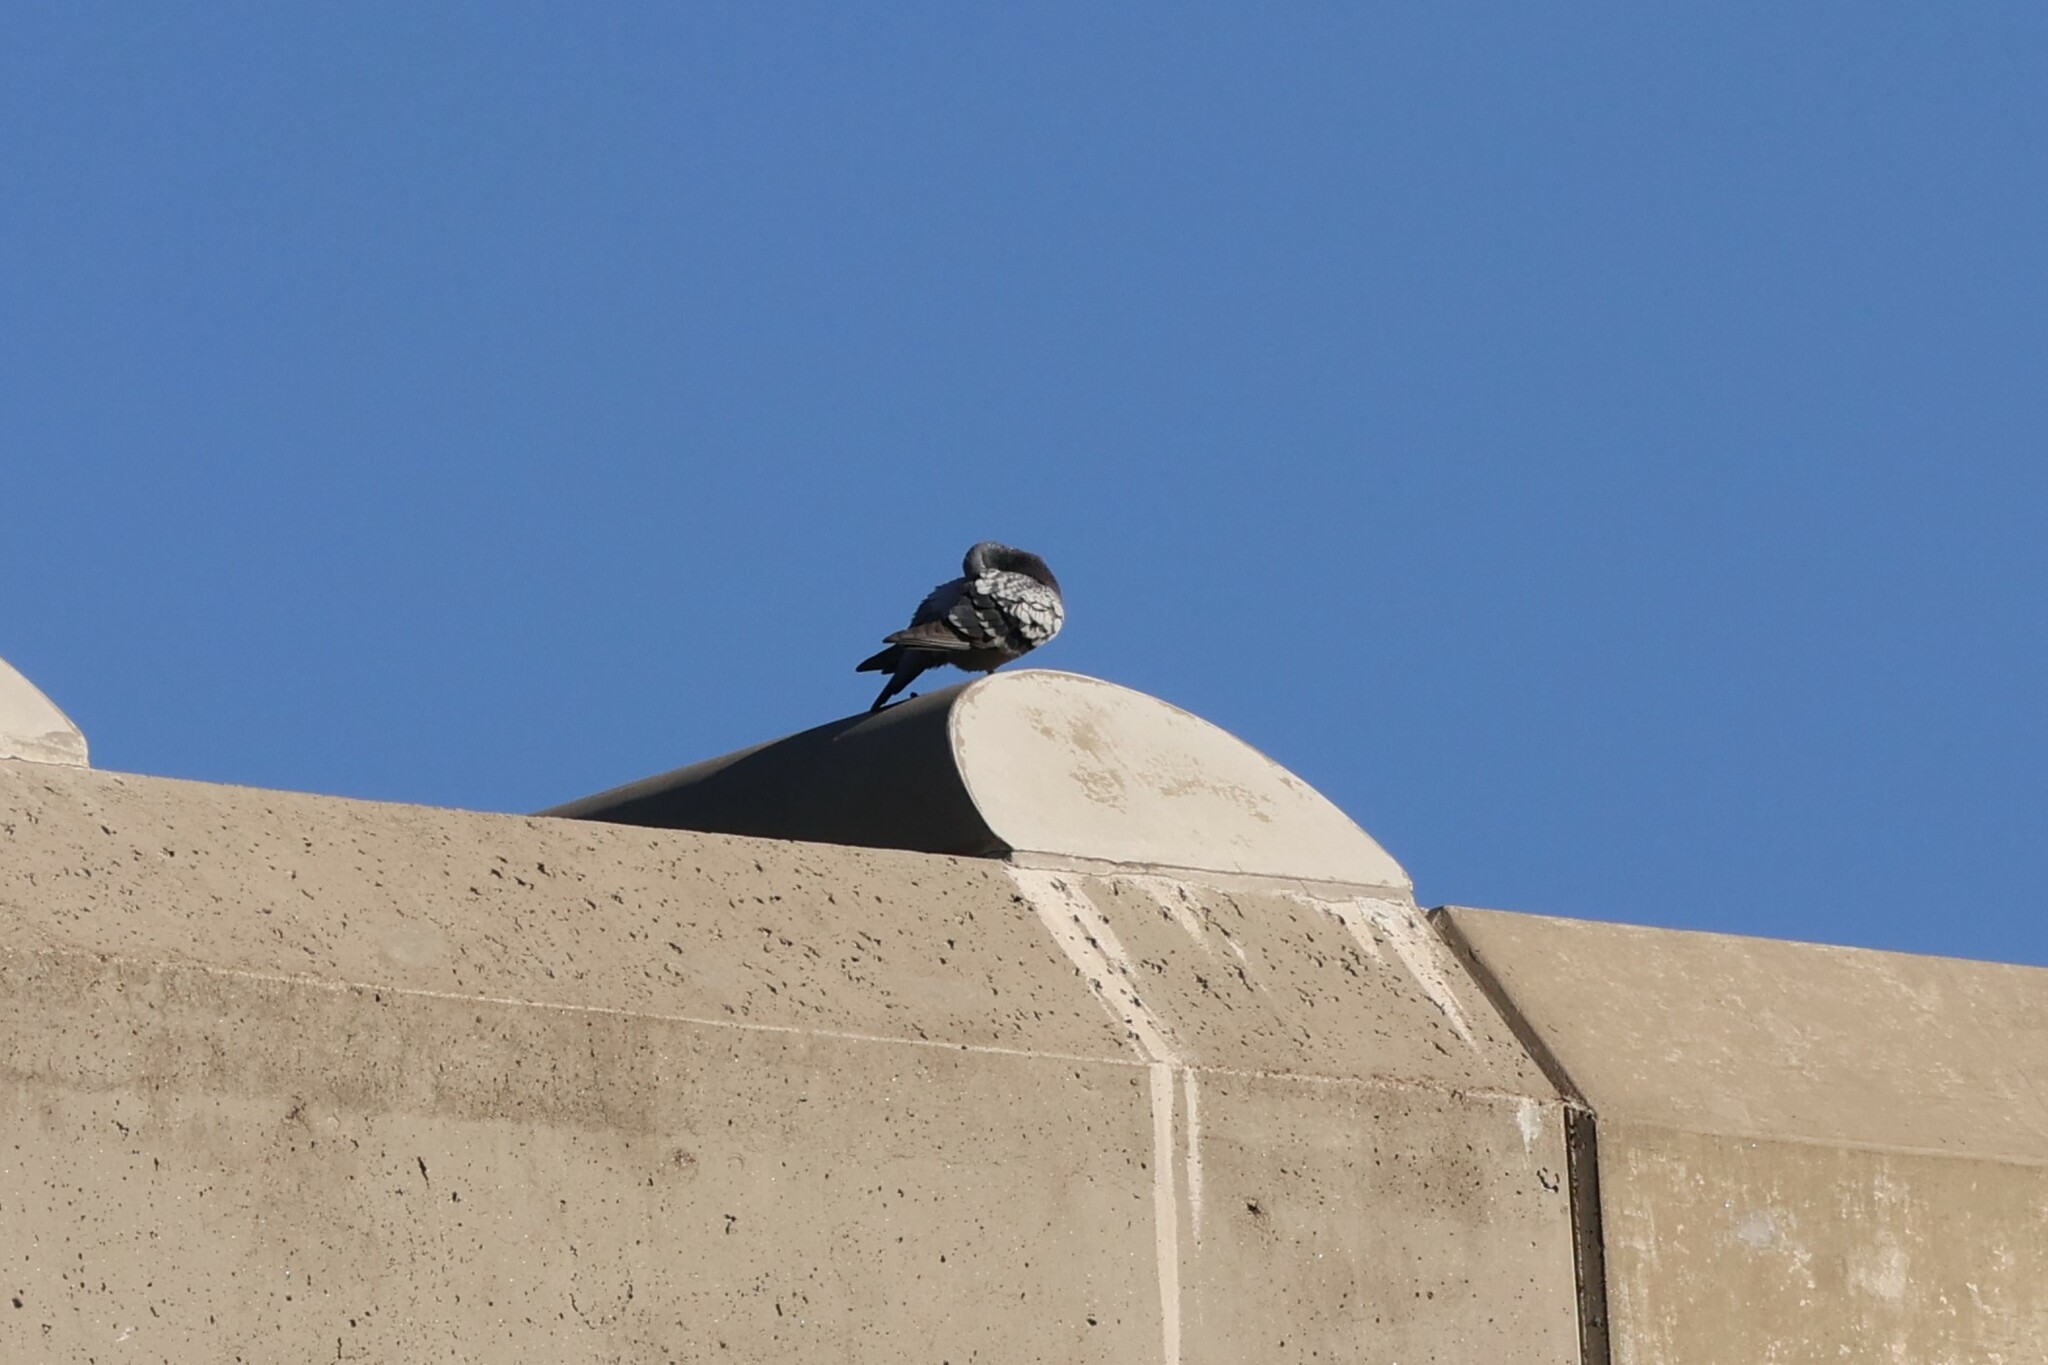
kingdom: Animalia
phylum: Chordata
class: Aves
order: Columbiformes
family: Columbidae
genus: Columba
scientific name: Columba livia
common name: Rock pigeon
